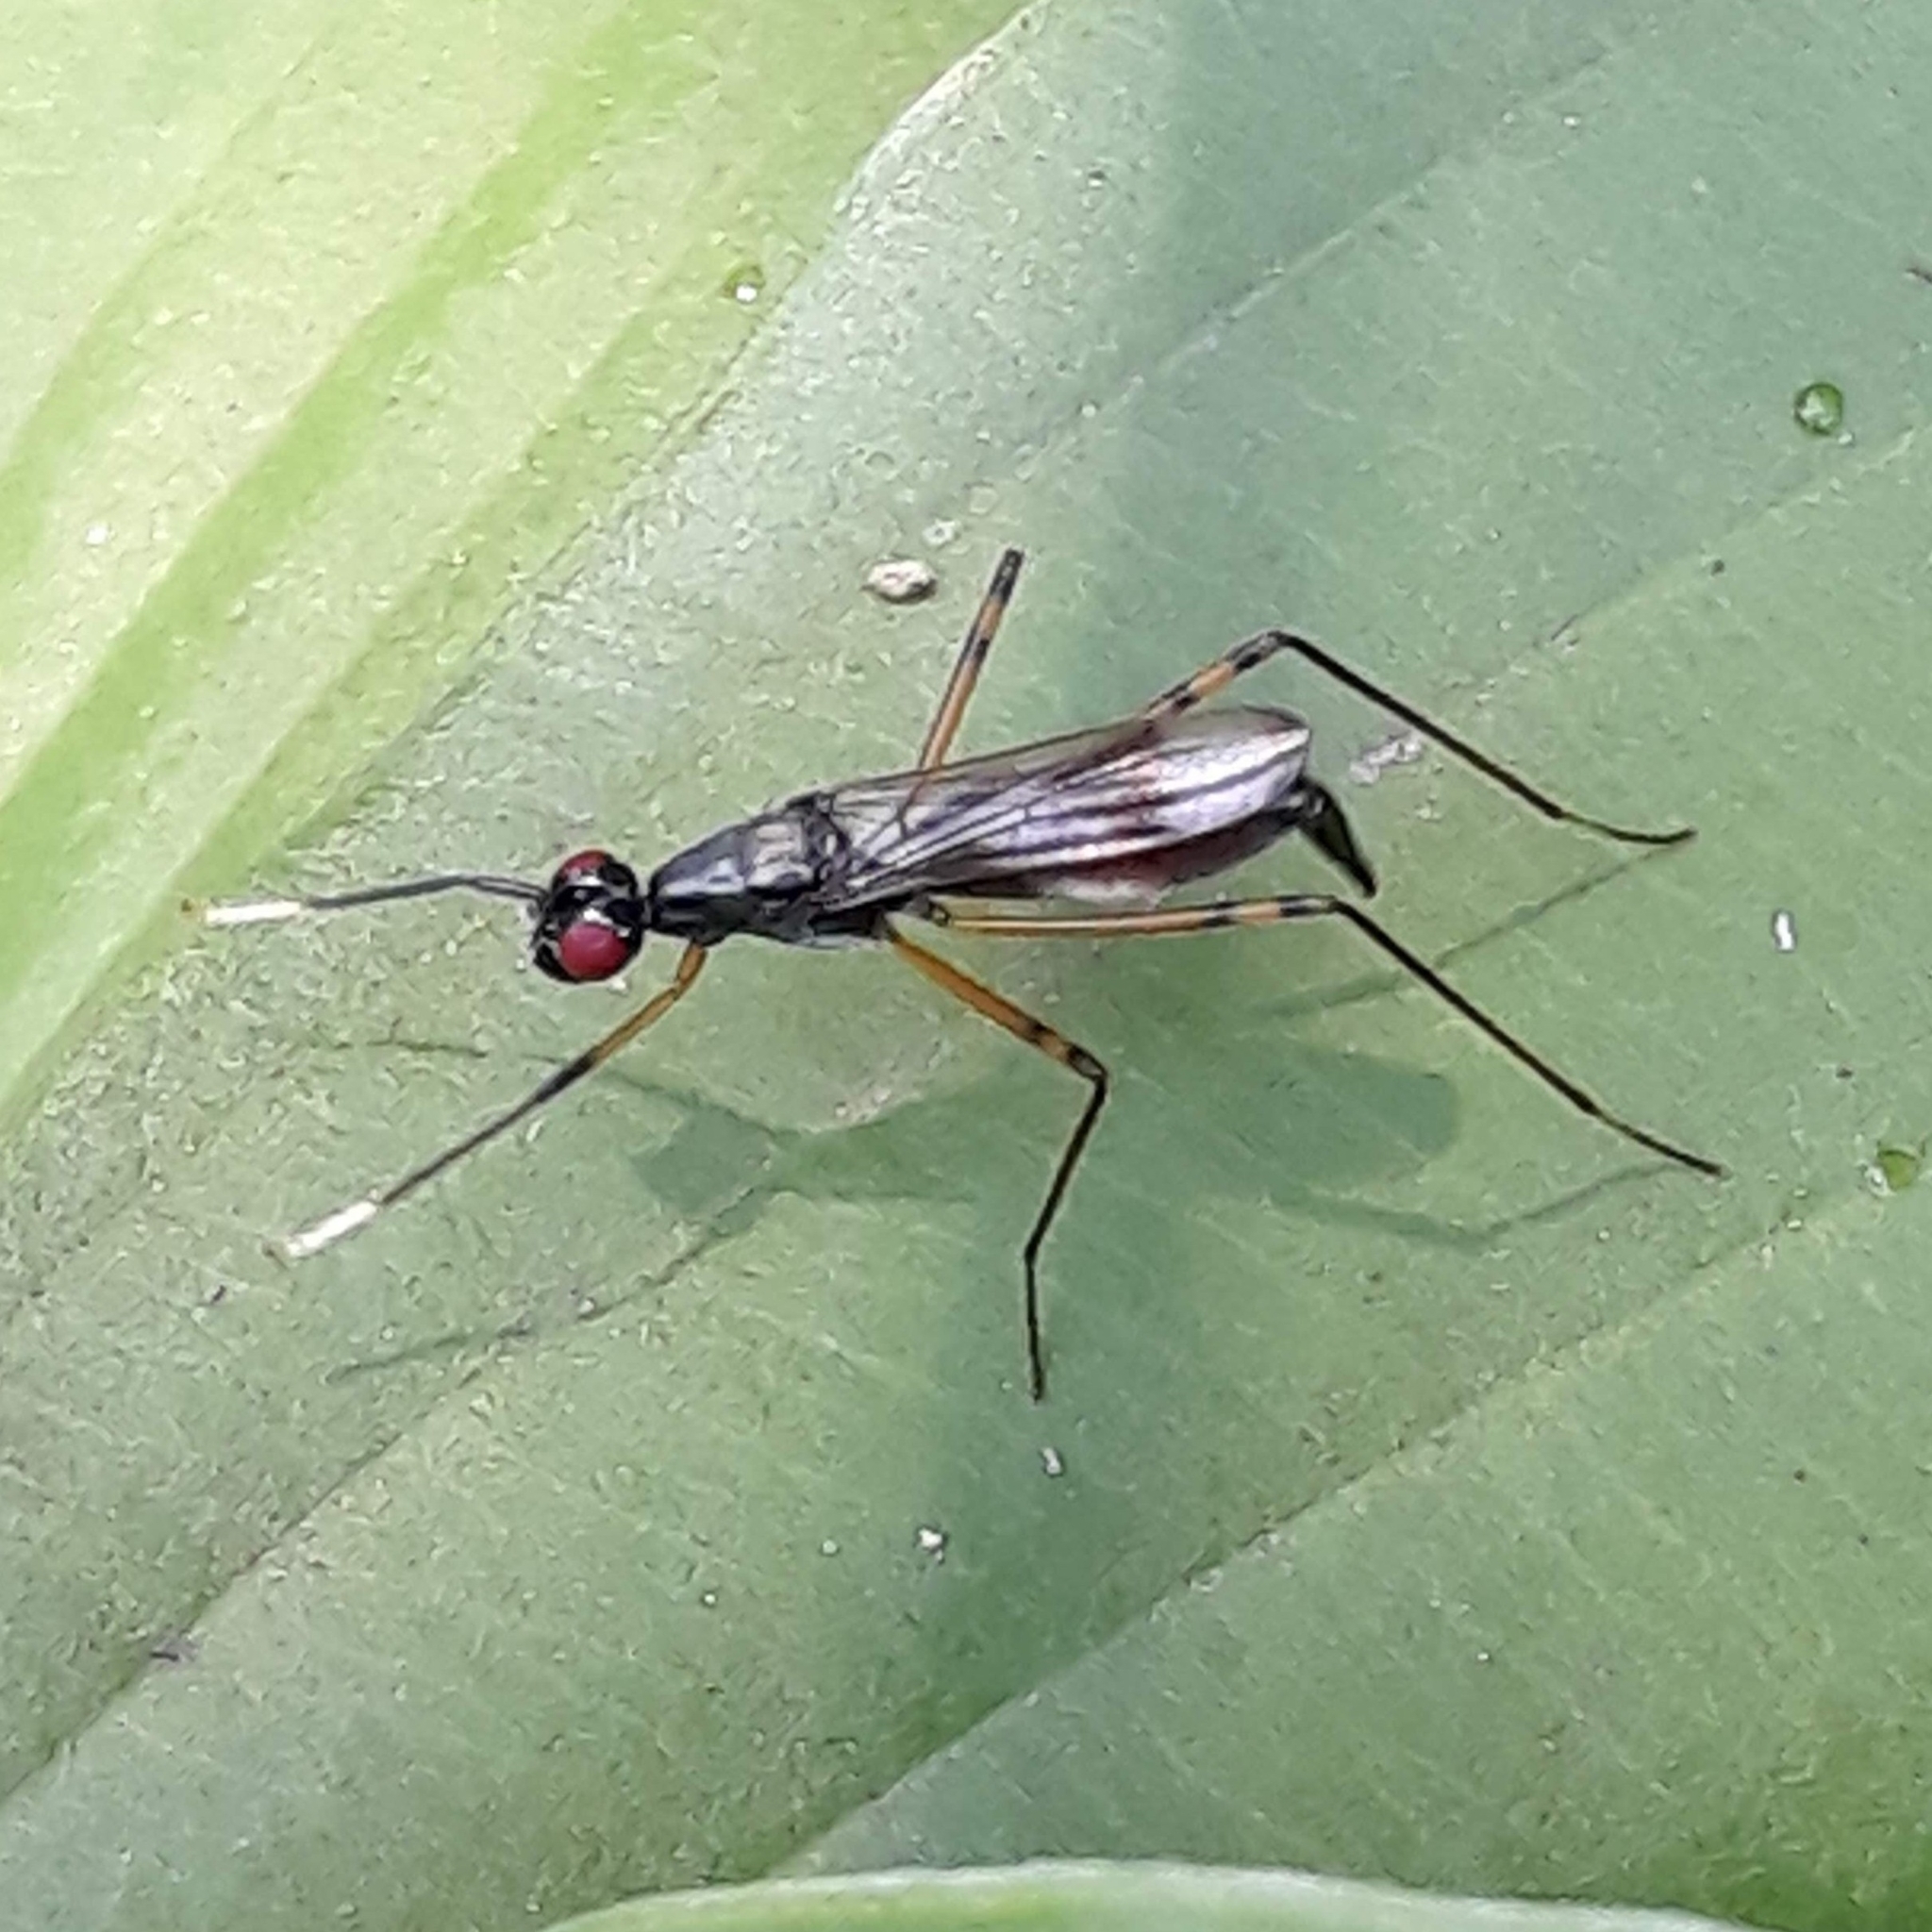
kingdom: Animalia
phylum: Arthropoda
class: Insecta
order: Diptera
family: Micropezidae
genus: Rainieria
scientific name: Rainieria antennaepes
